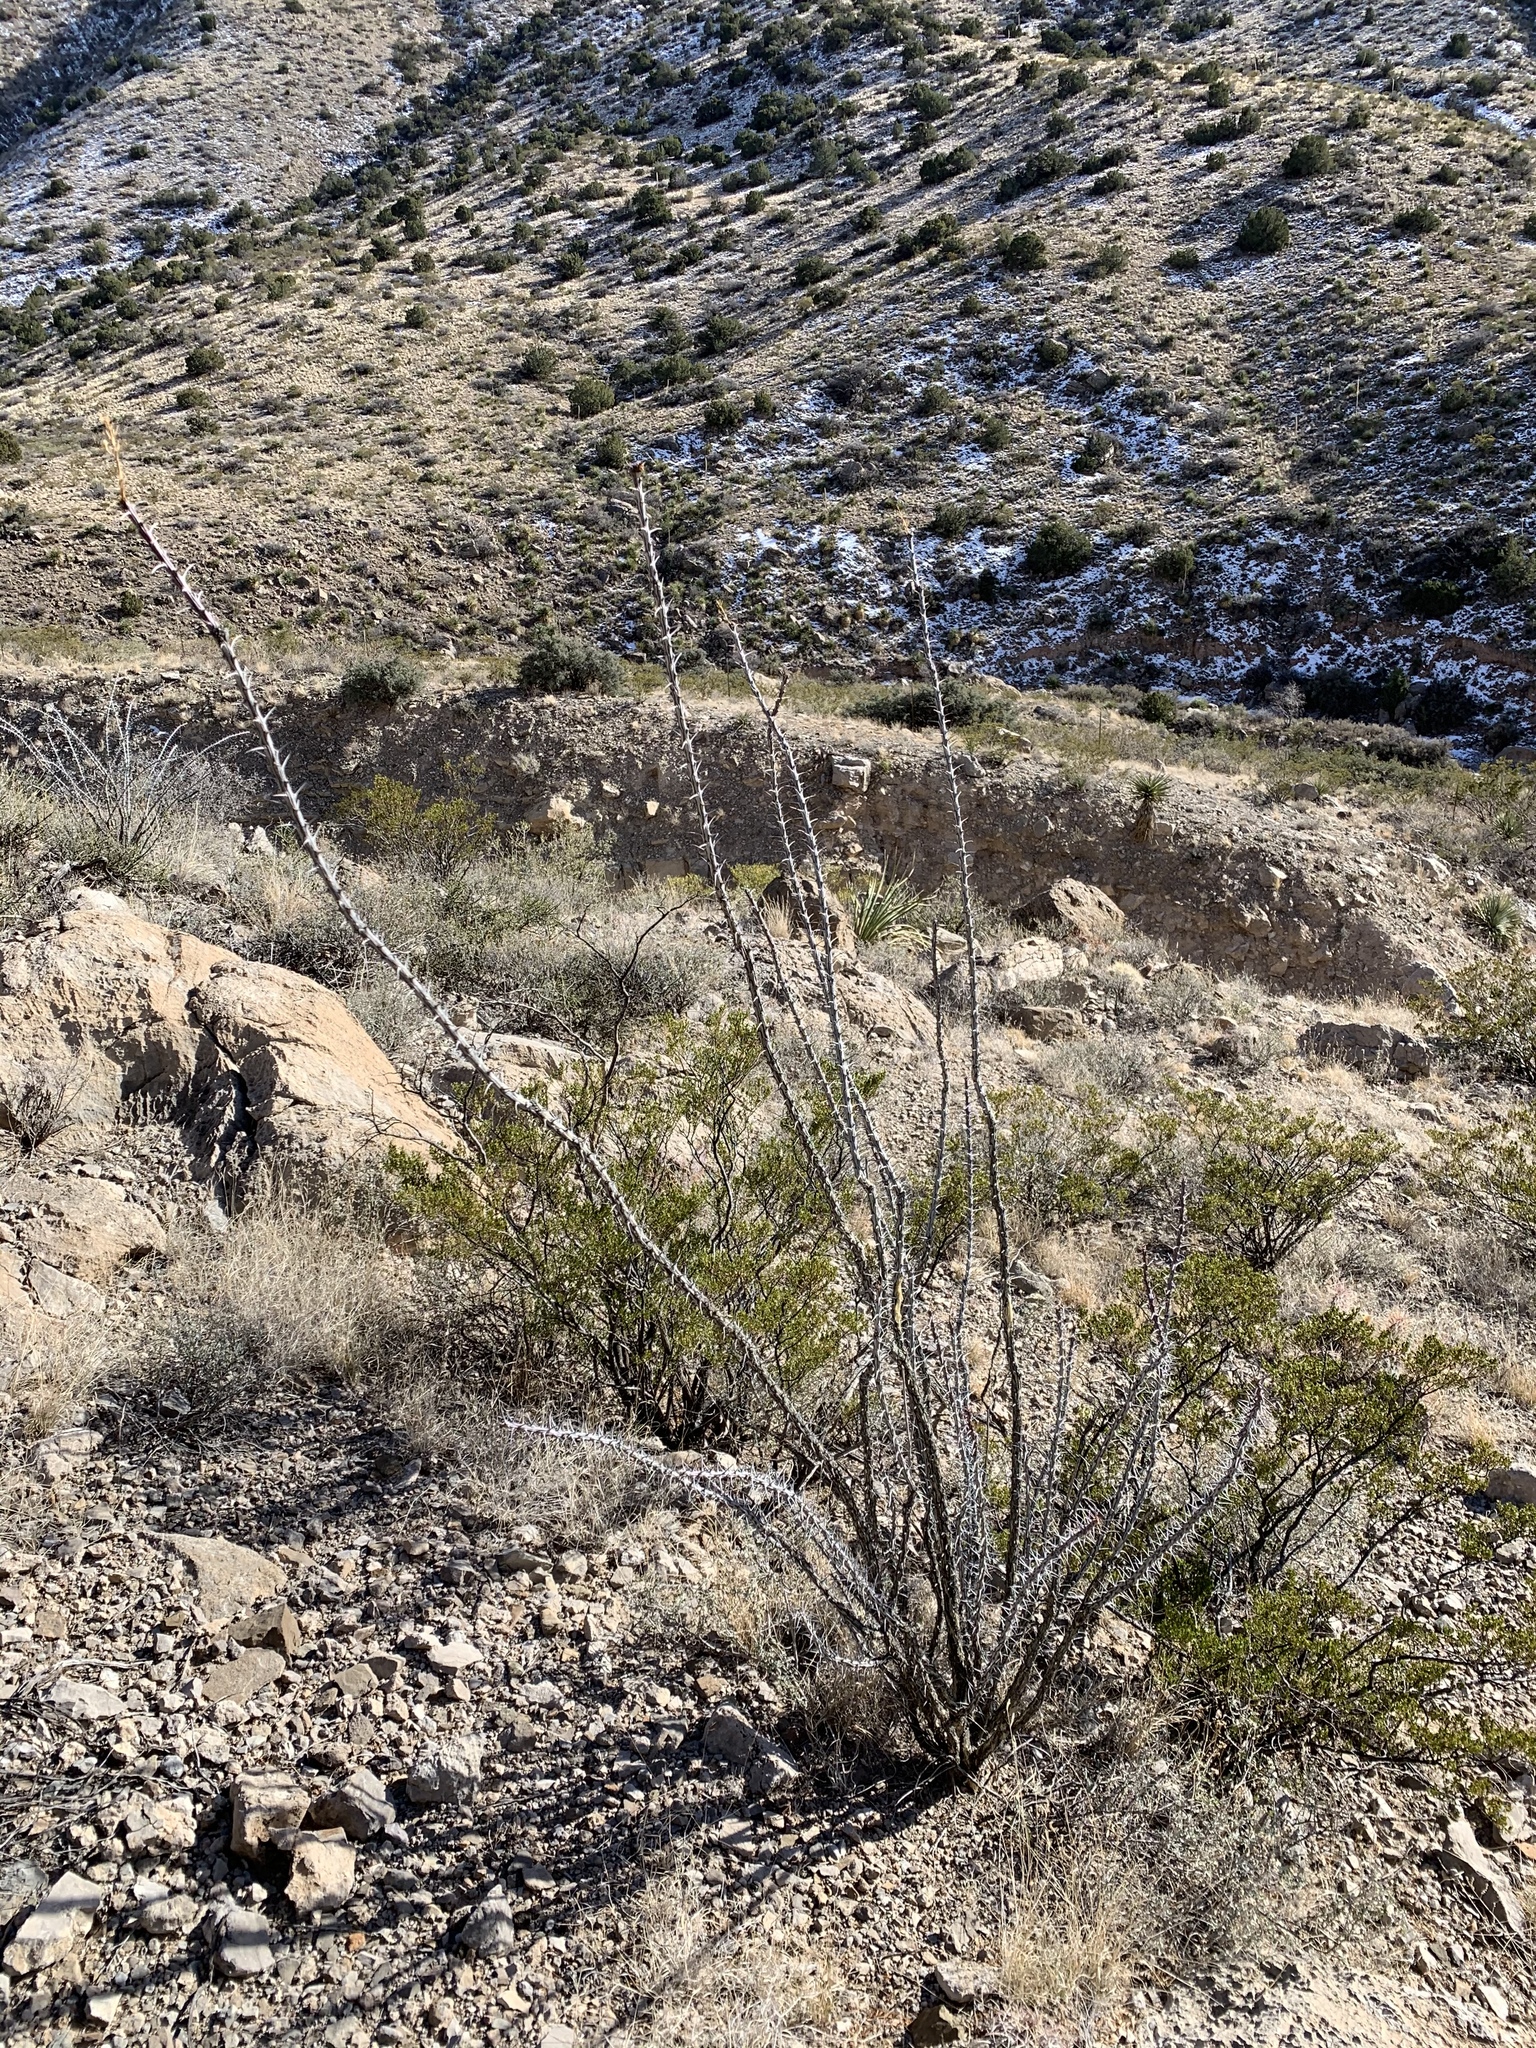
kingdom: Plantae
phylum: Tracheophyta
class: Magnoliopsida
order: Ericales
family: Fouquieriaceae
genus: Fouquieria
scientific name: Fouquieria splendens
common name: Vine-cactus
